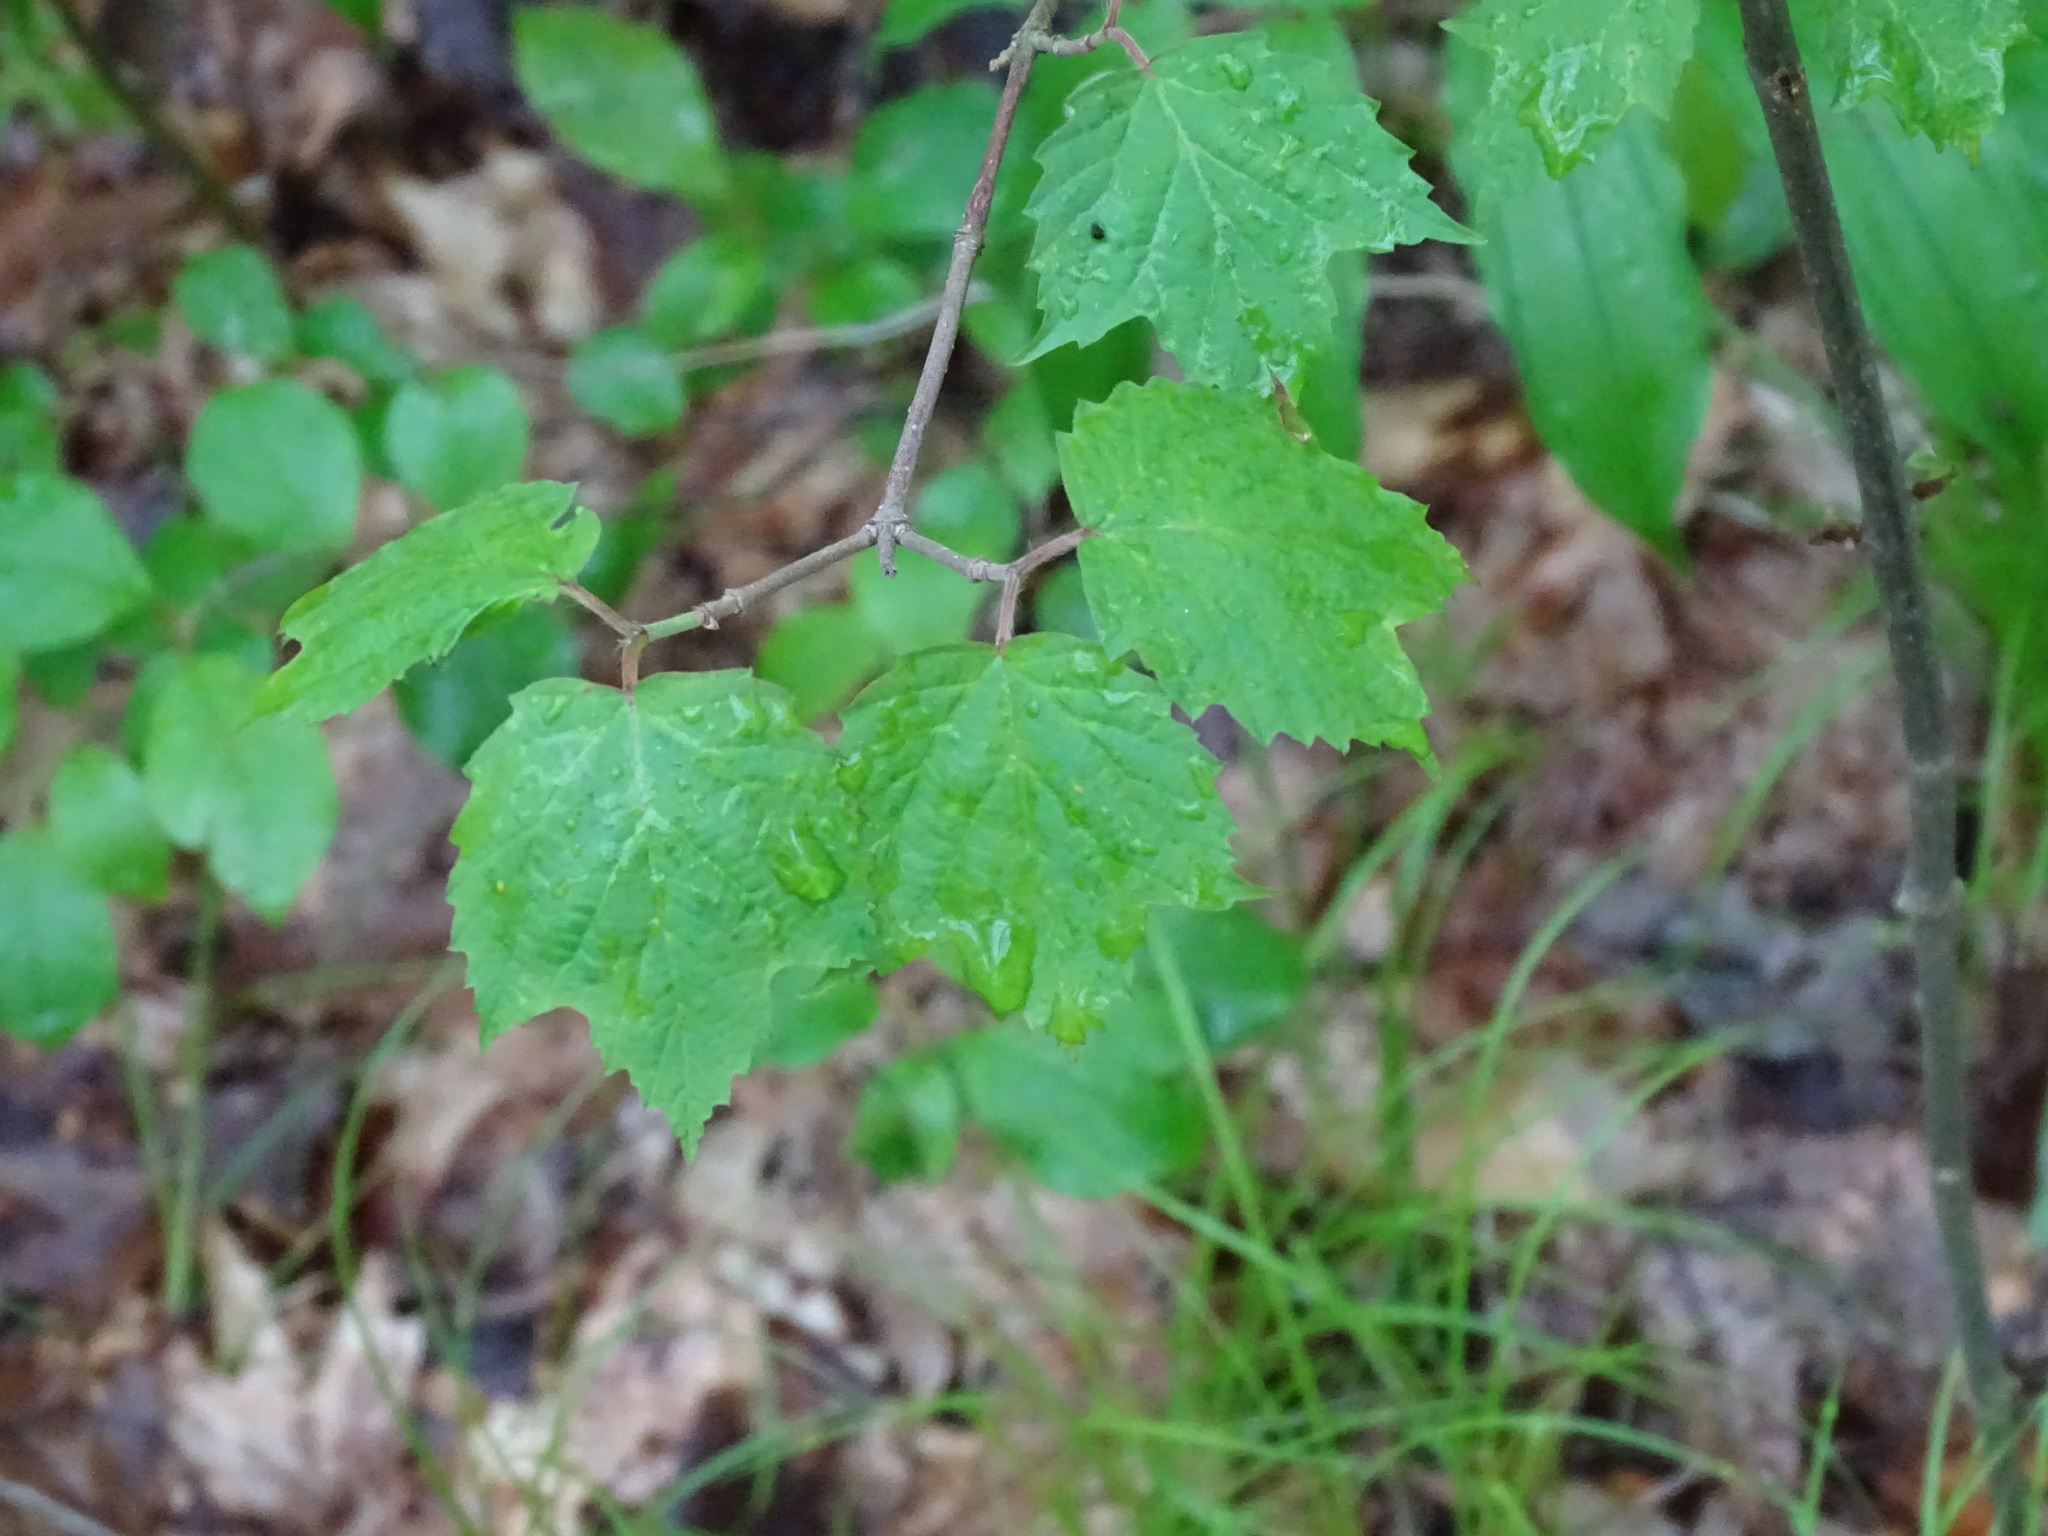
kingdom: Plantae
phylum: Tracheophyta
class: Magnoliopsida
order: Dipsacales
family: Viburnaceae
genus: Viburnum
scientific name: Viburnum acerifolium
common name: Dockmackie
